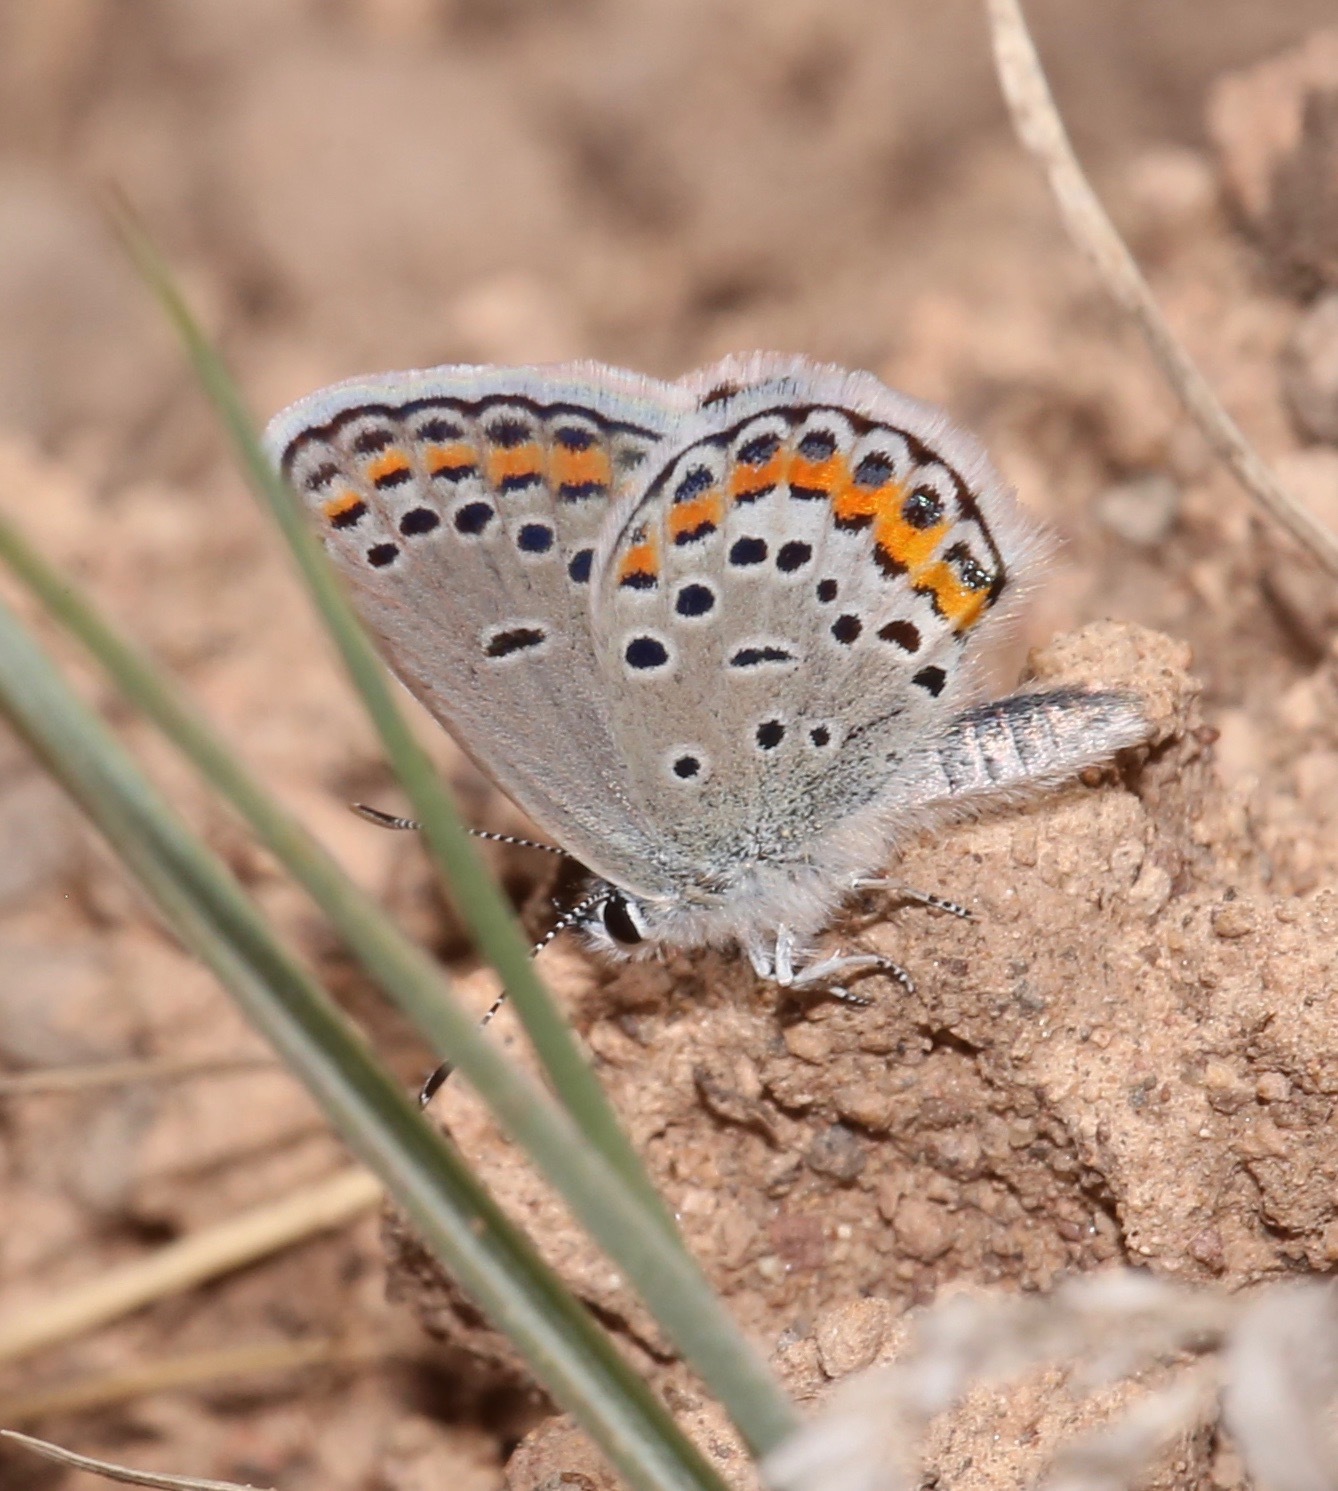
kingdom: Animalia
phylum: Arthropoda
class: Insecta
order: Lepidoptera
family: Lycaenidae
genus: Lycaeides
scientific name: Lycaeides melissa
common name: Melissa blue
